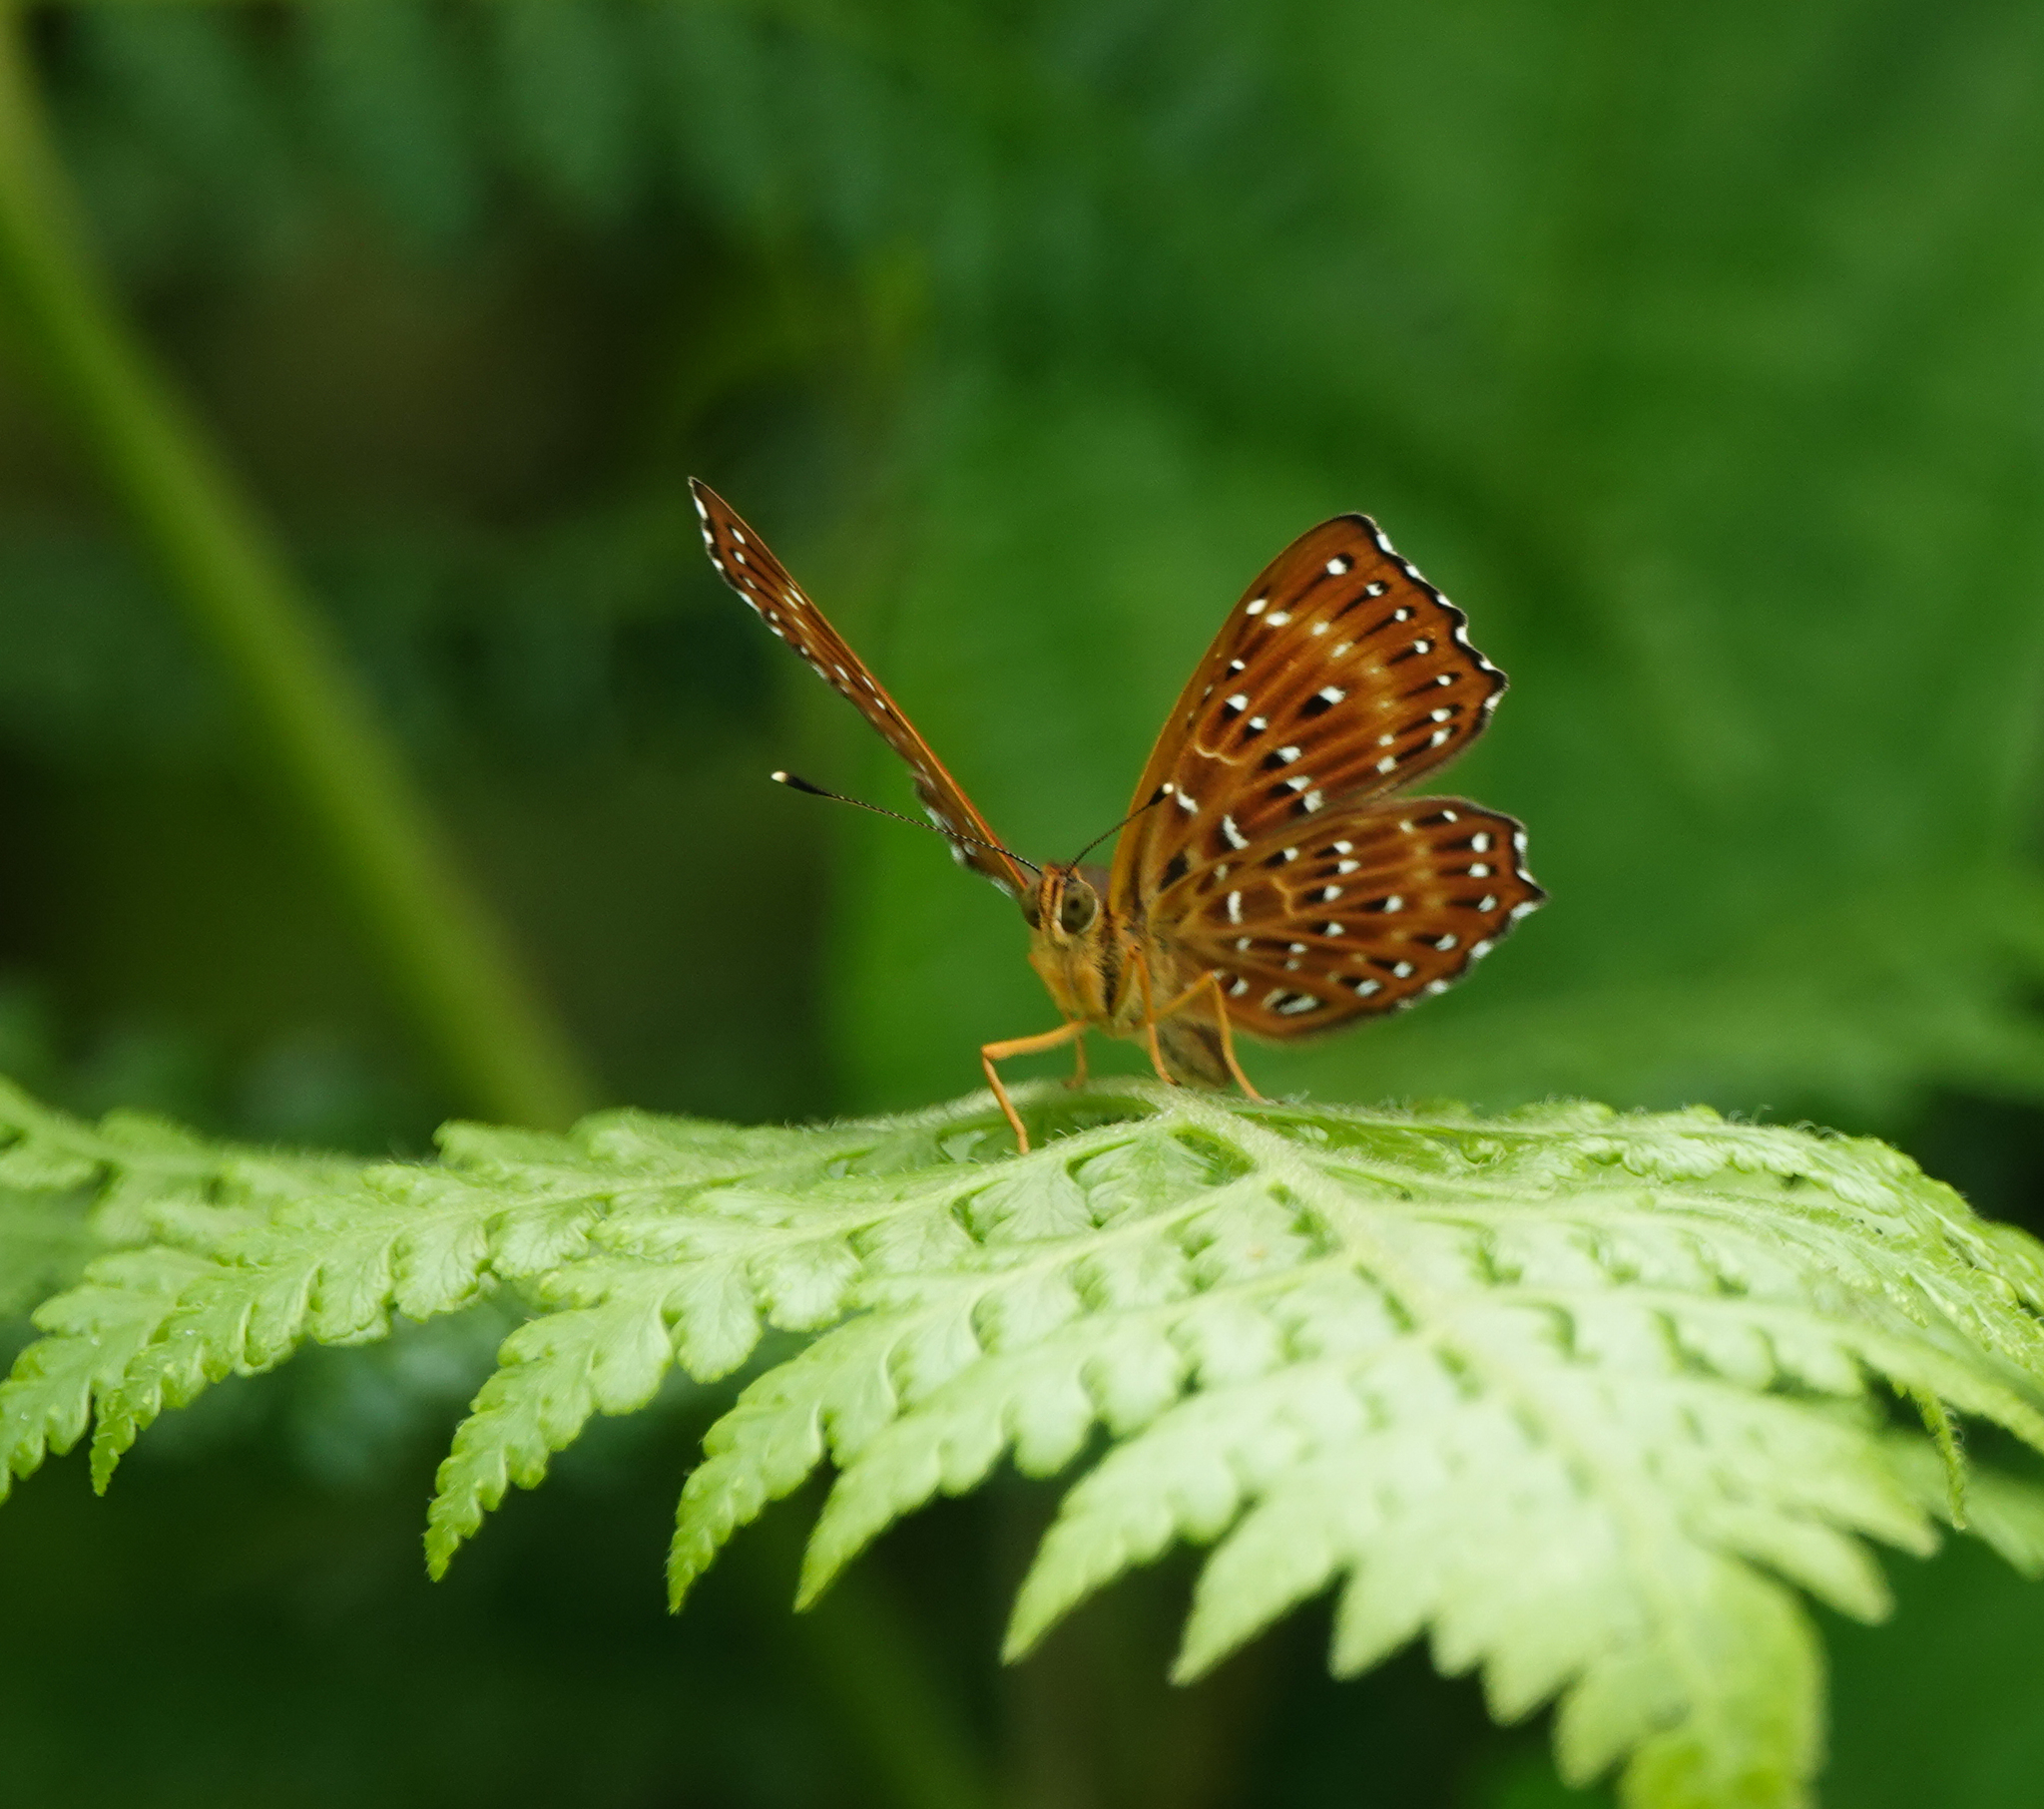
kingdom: Animalia
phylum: Arthropoda
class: Insecta
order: Lepidoptera
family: Riodinidae
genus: Zemeros
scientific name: Zemeros flegyas
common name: Punchinello
